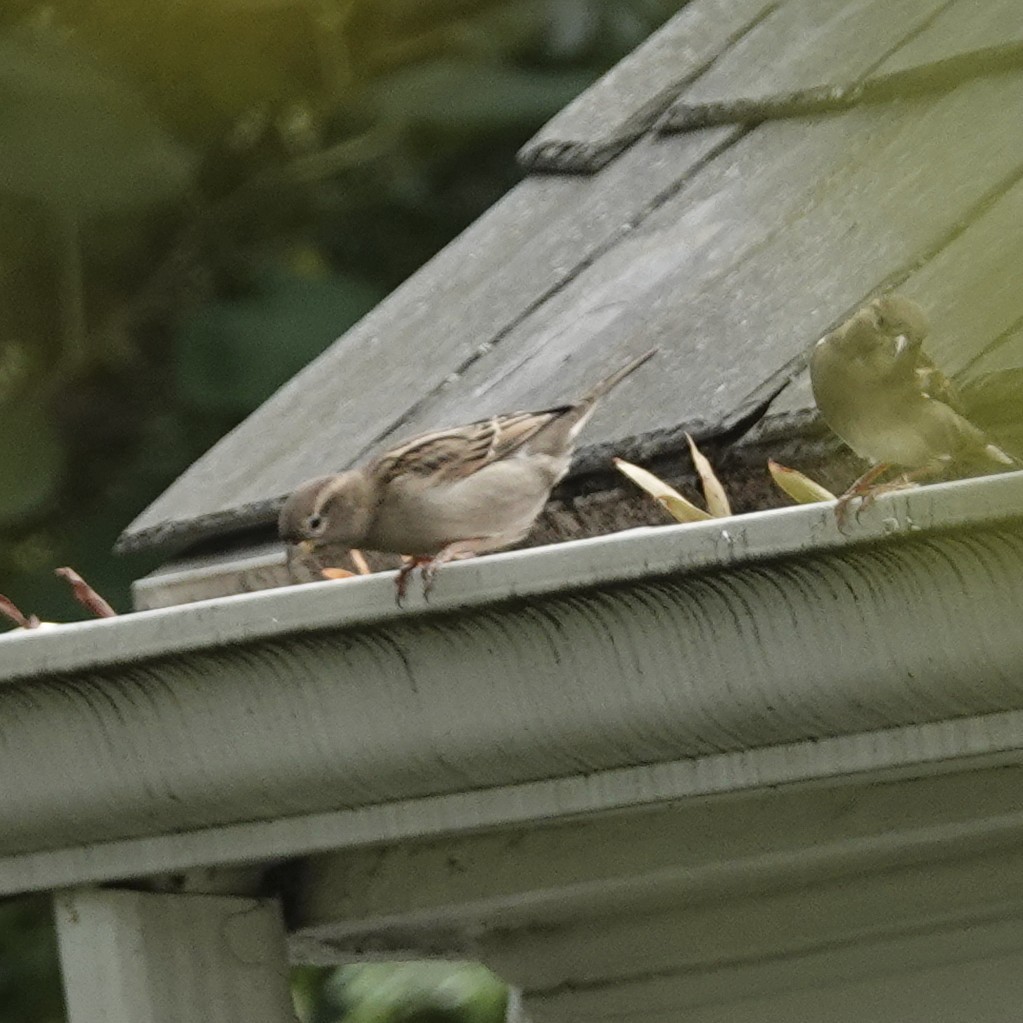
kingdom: Animalia
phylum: Chordata
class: Aves
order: Passeriformes
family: Passeridae
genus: Passer
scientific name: Passer domesticus
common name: House sparrow
